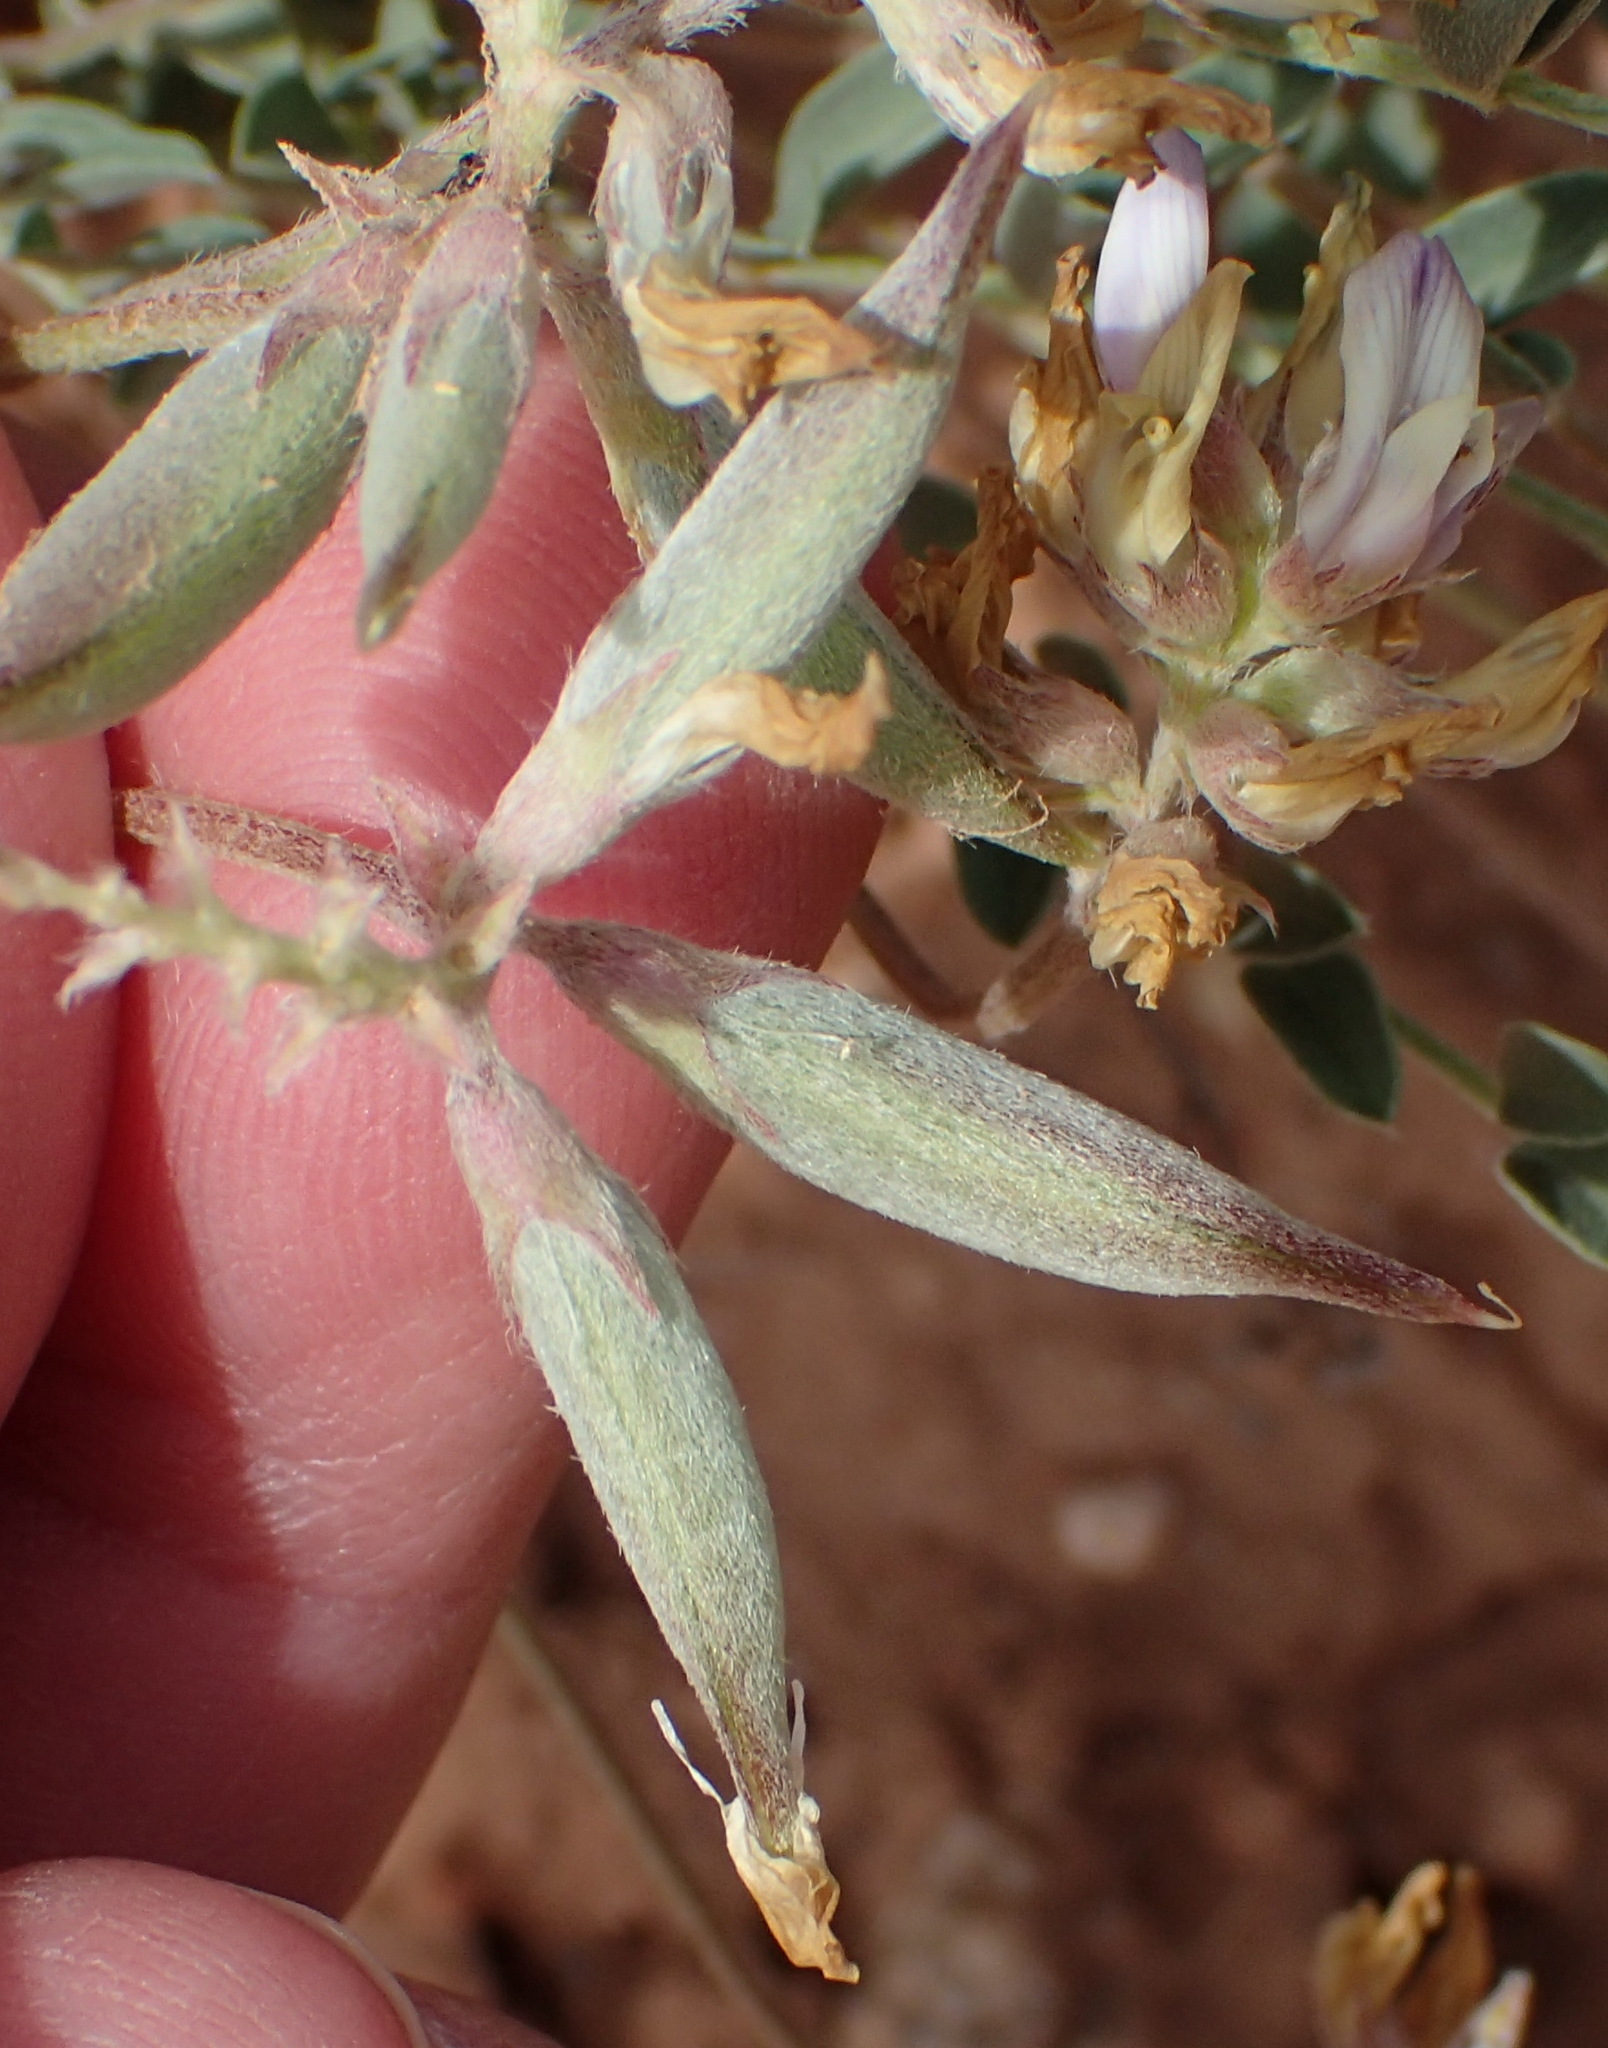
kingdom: Plantae
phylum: Tracheophyta
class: Magnoliopsida
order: Fabales
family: Fabaceae
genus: Astragalus
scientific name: Astragalus lotiflorus
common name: Lotus milk-vetch
